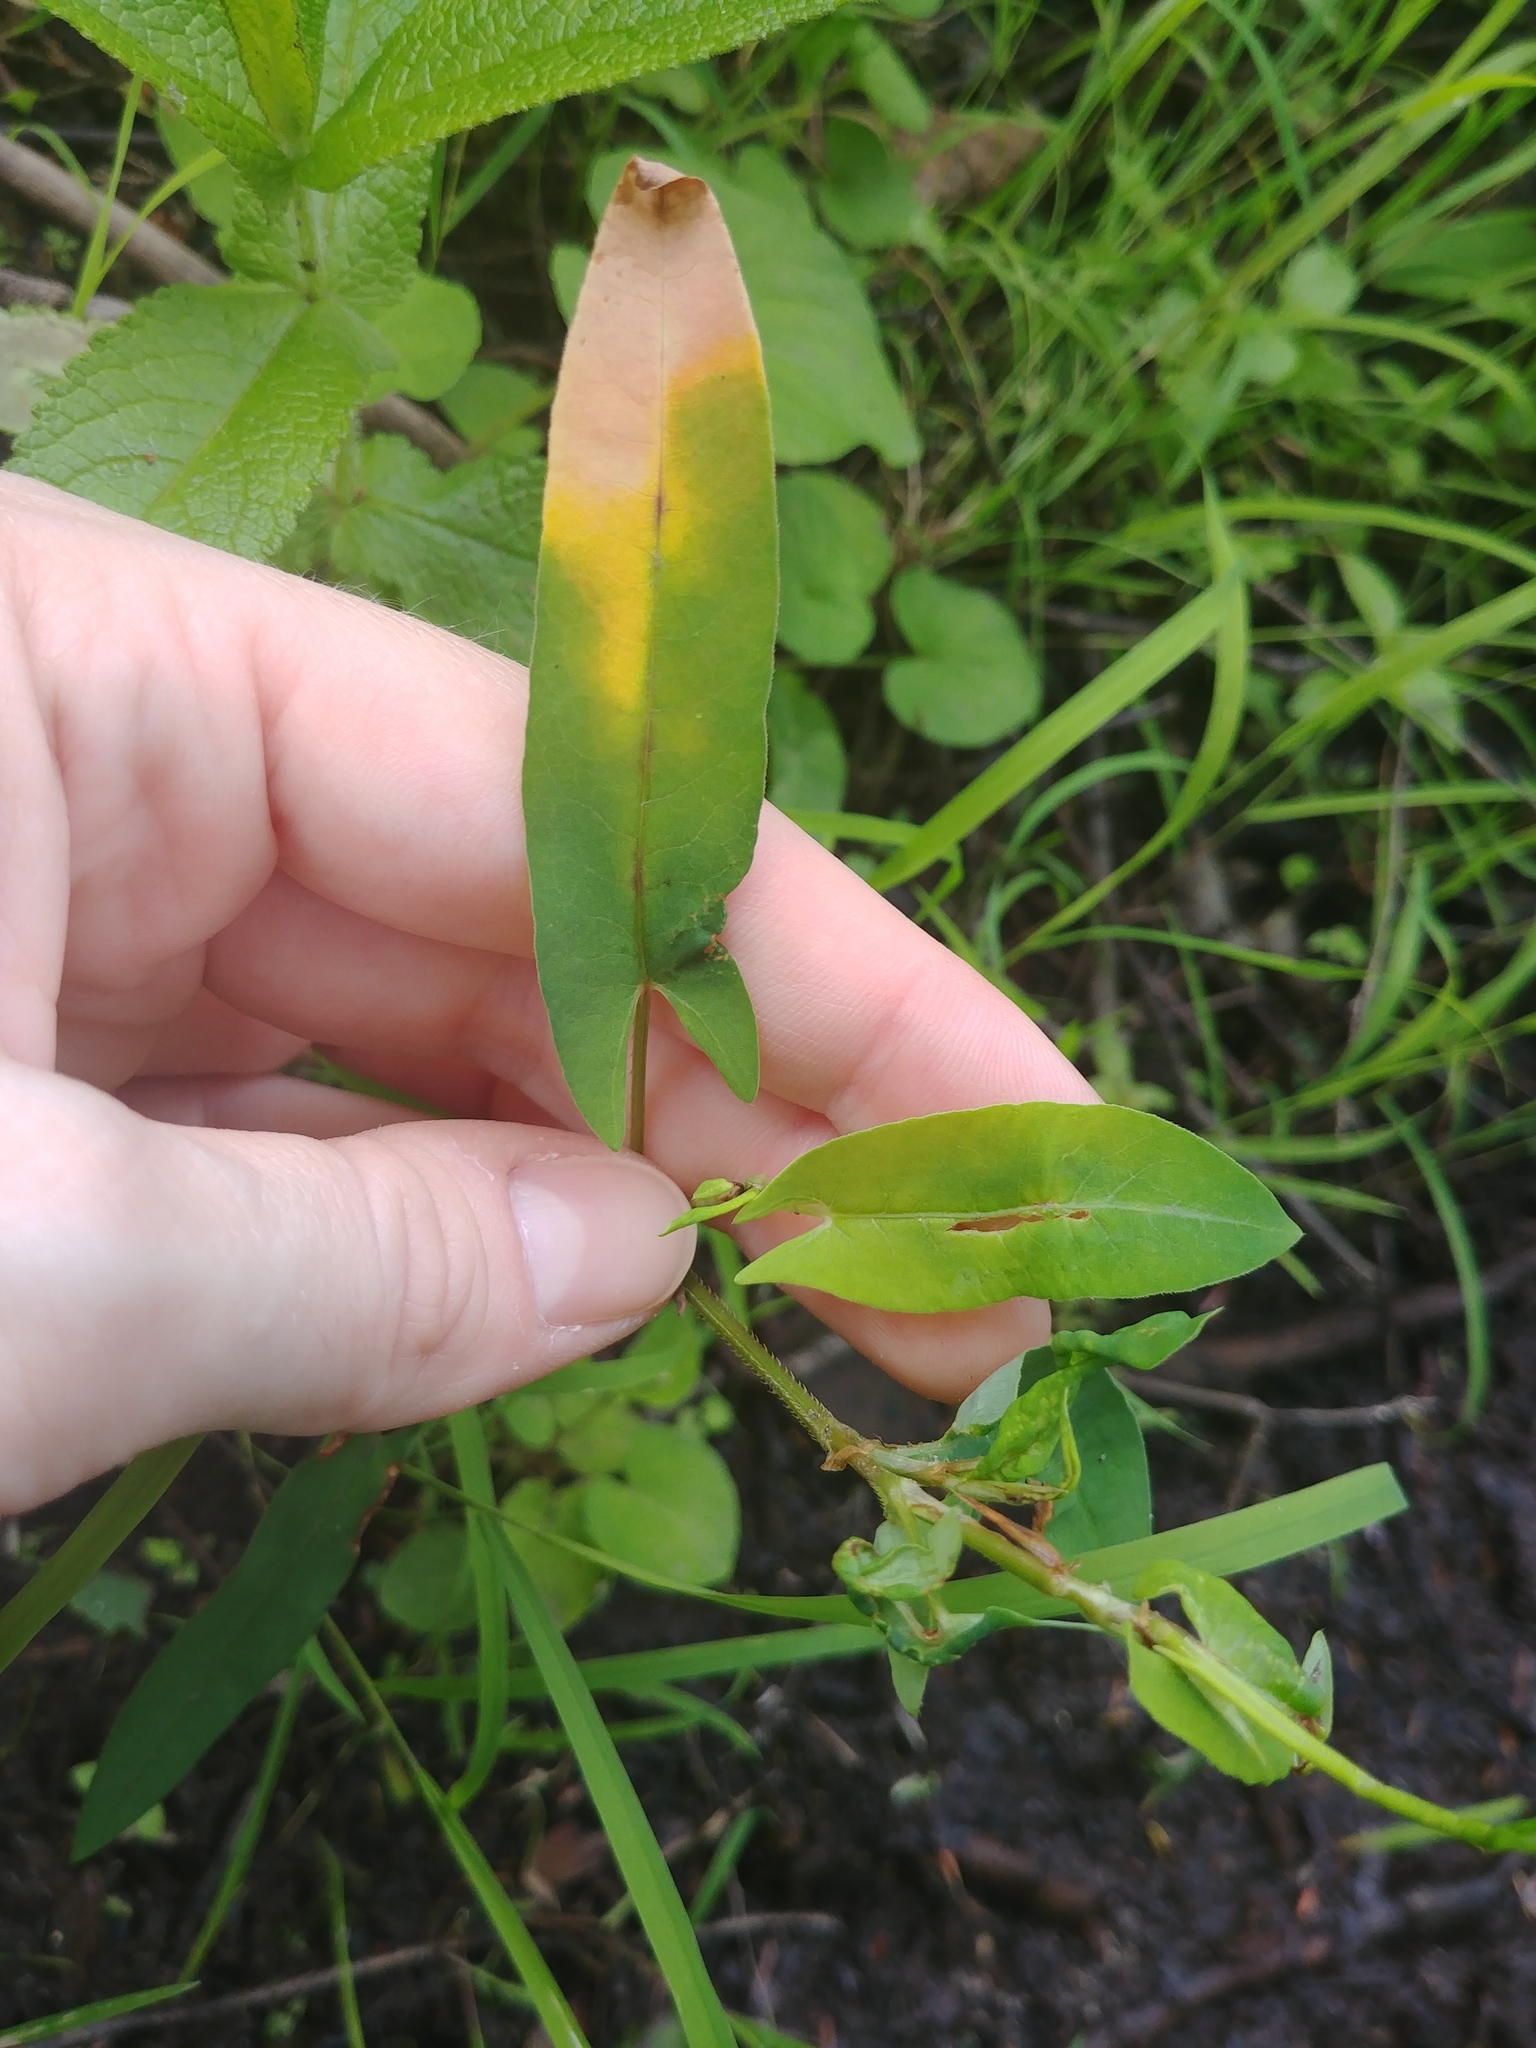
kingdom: Plantae
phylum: Tracheophyta
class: Magnoliopsida
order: Caryophyllales
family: Polygonaceae
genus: Persicaria
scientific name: Persicaria sagittata
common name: American tearthumb
